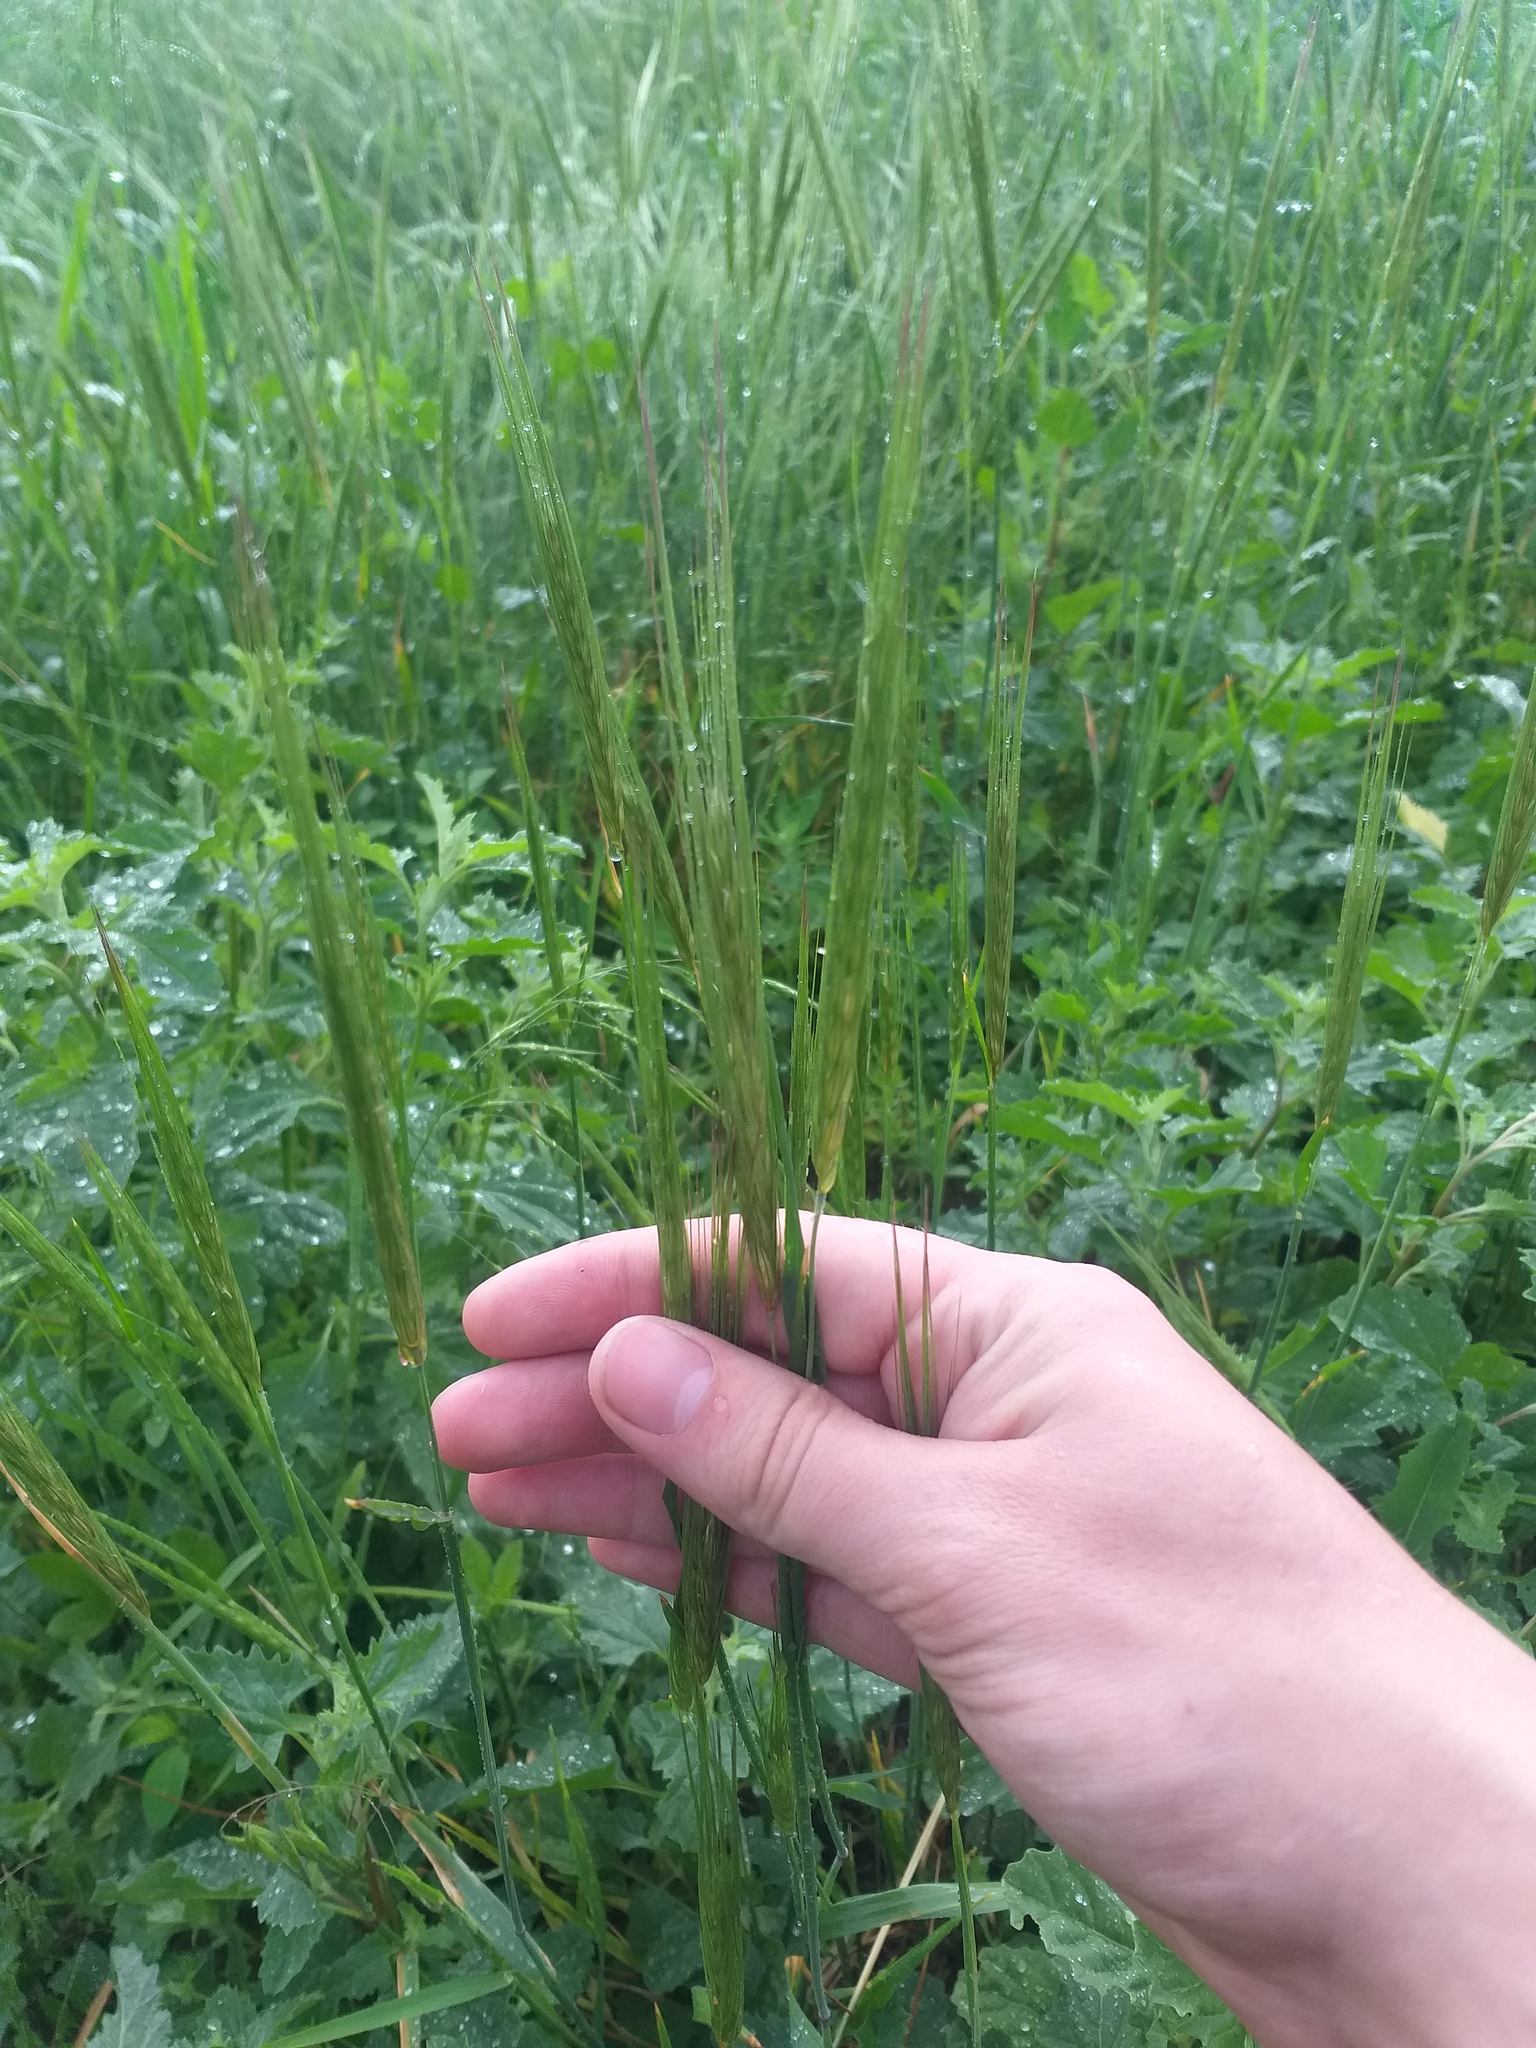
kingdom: Plantae
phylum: Tracheophyta
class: Liliopsida
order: Poales
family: Poaceae
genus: Secale
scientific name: Secale sylvestre
